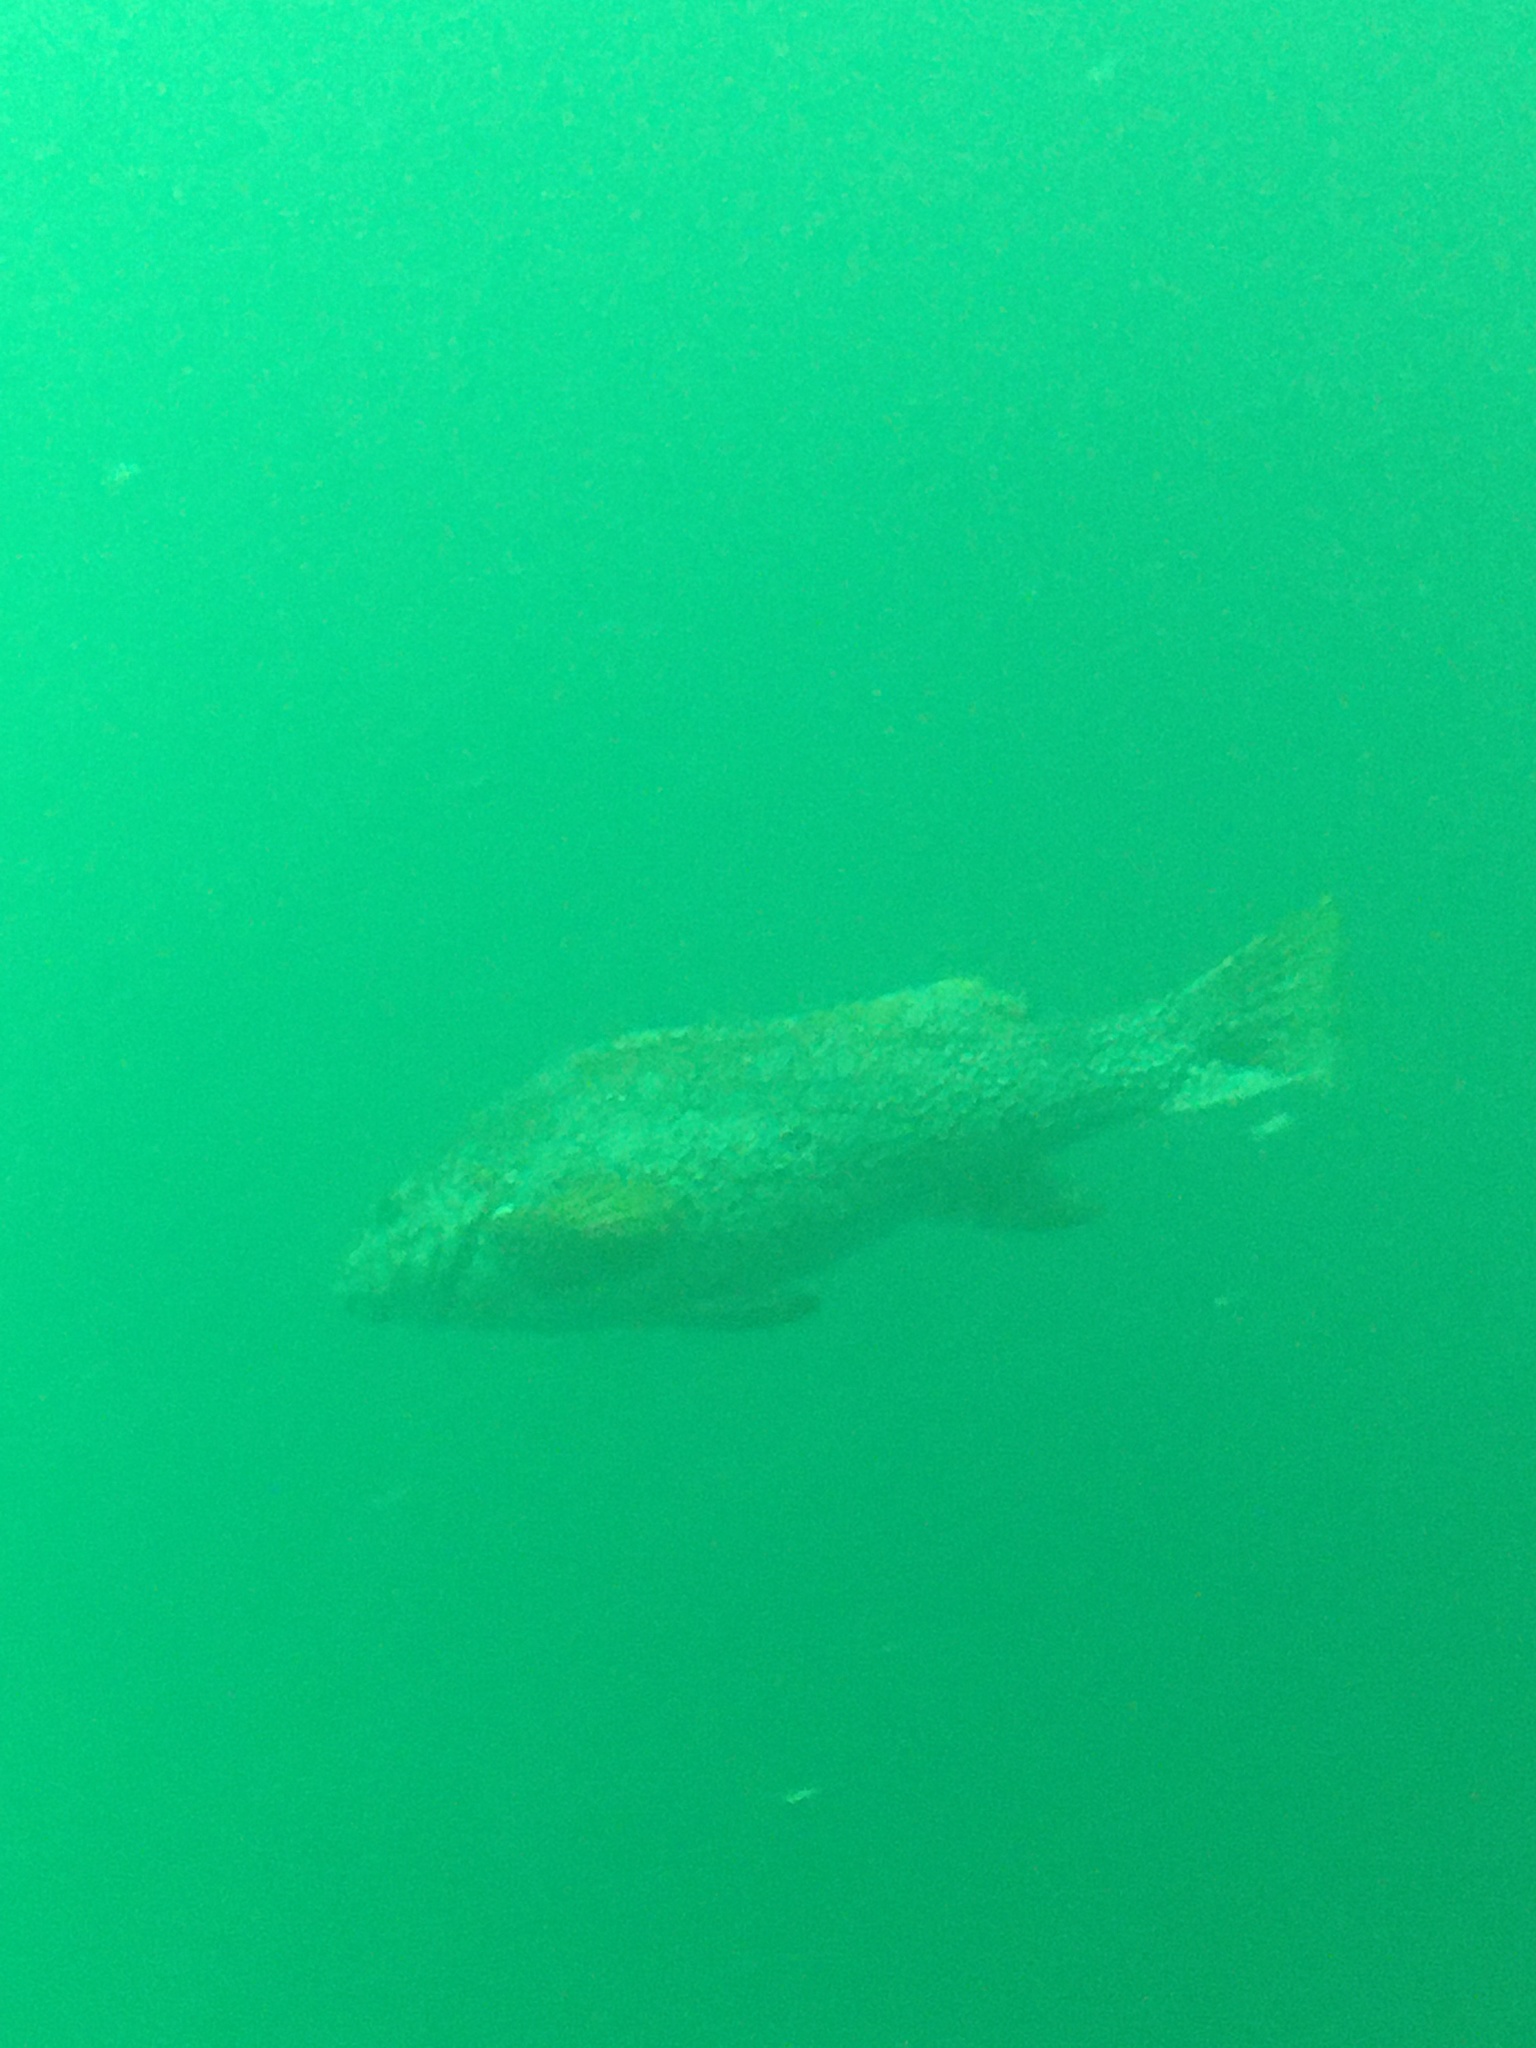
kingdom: Animalia
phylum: Chordata
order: Perciformes
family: Aplodactylidae
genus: Aplodactylus
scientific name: Aplodactylus arctidens
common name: Marblefish
